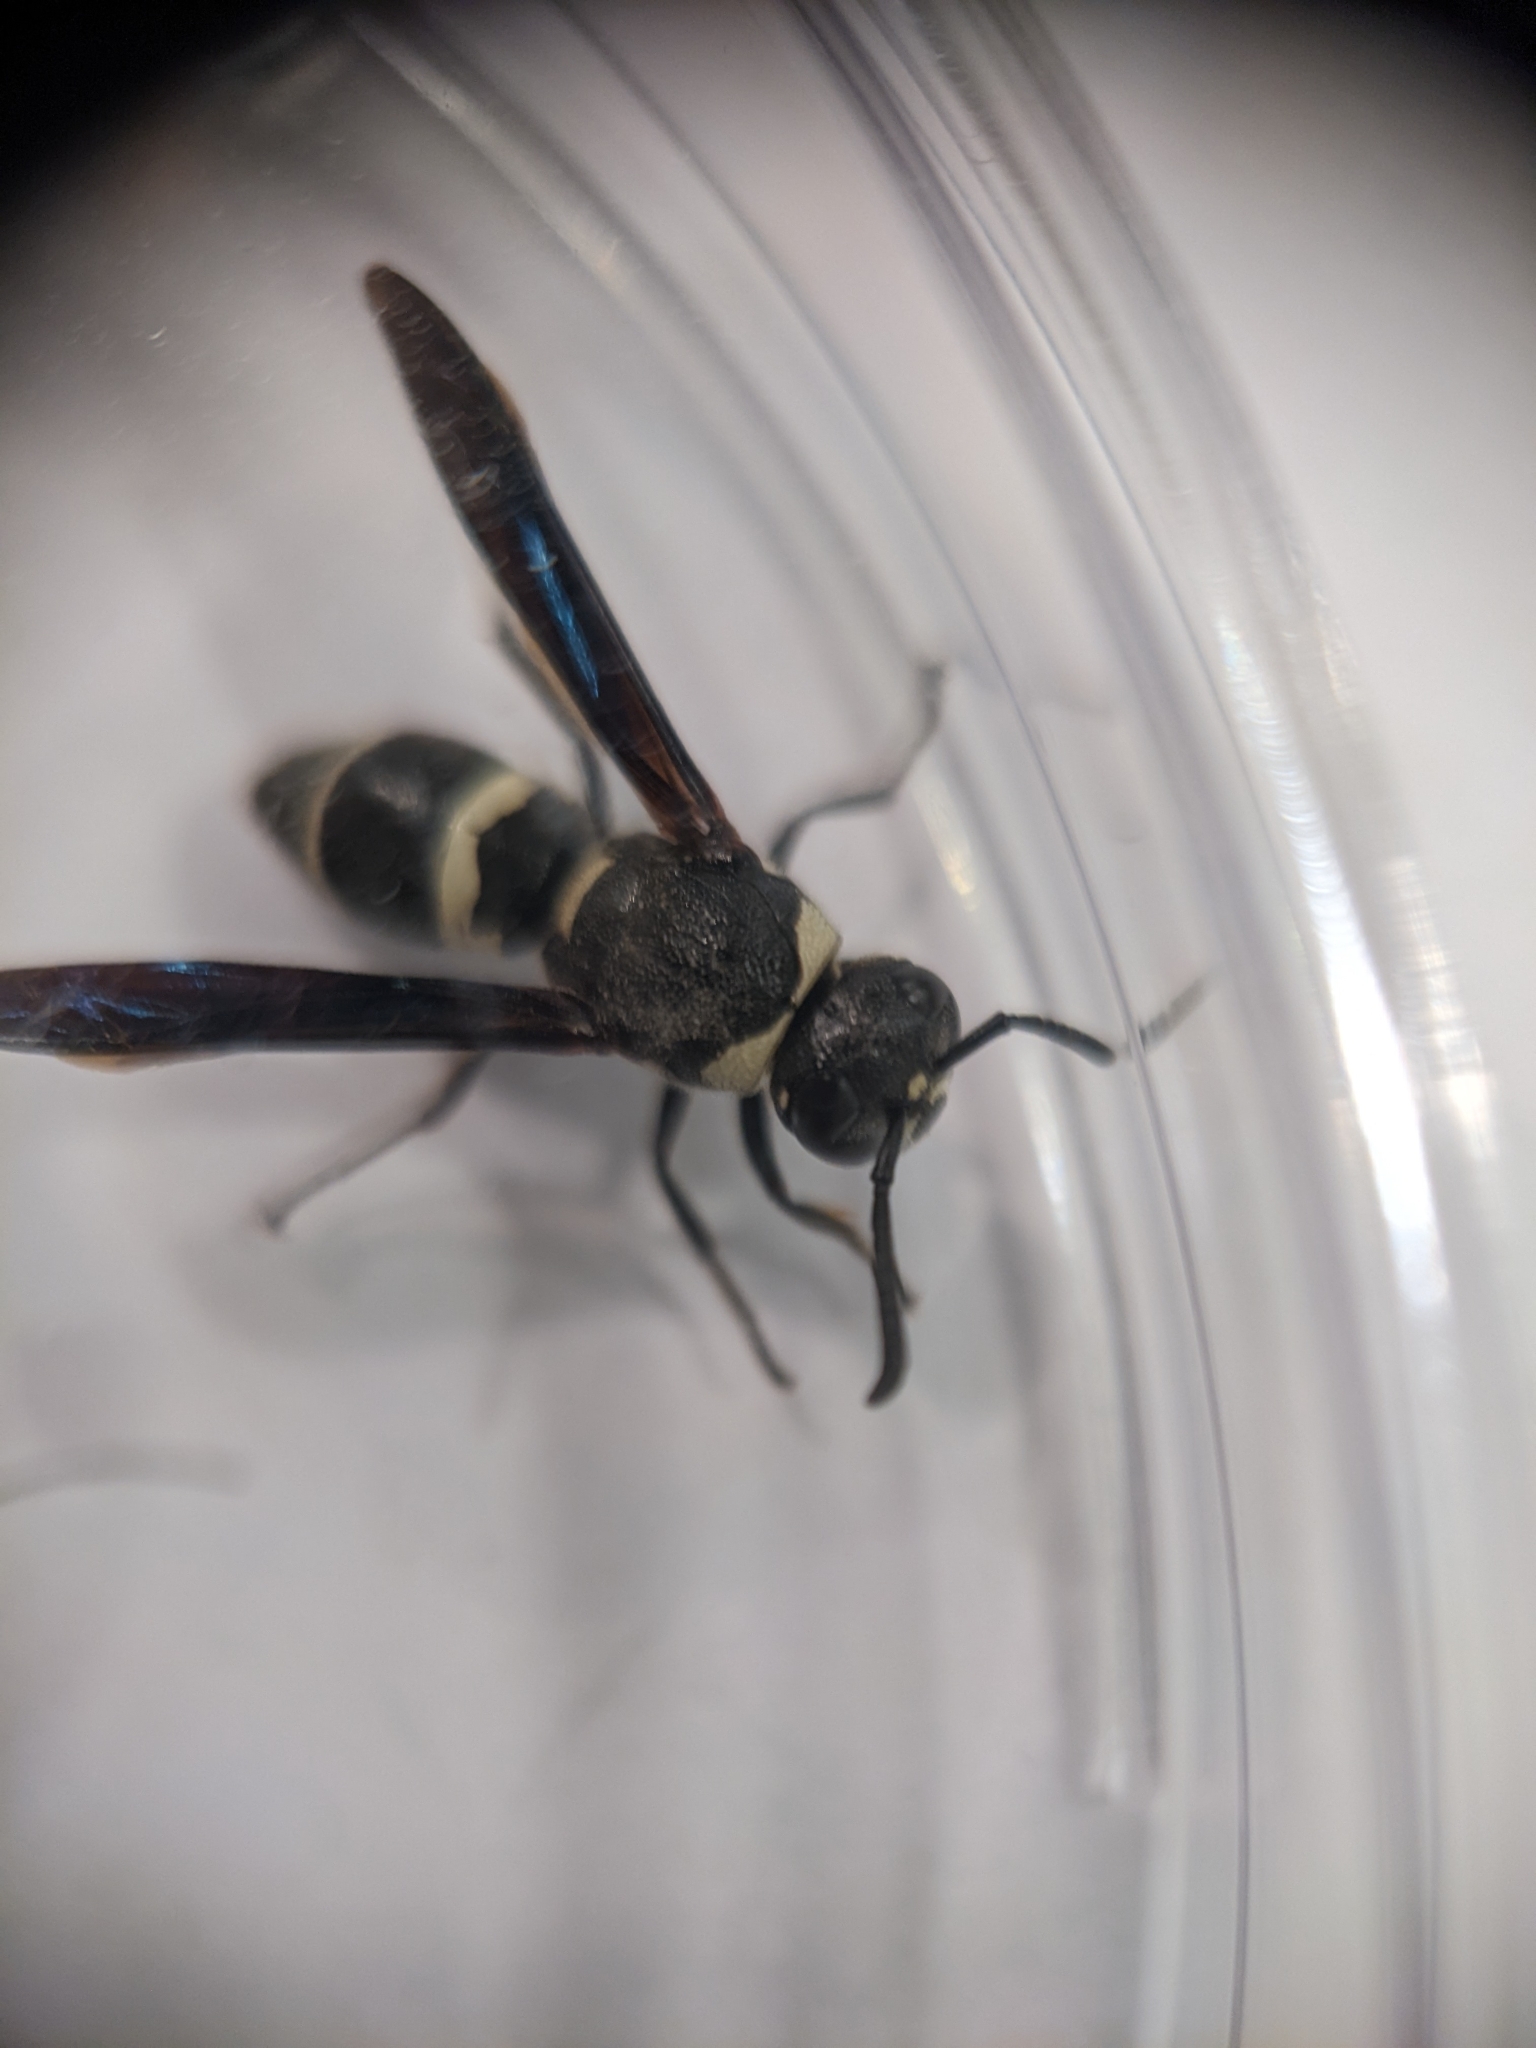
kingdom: Animalia
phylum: Arthropoda
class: Insecta
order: Hymenoptera
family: Eumenidae
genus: Euodynerus
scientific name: Euodynerus megaera
